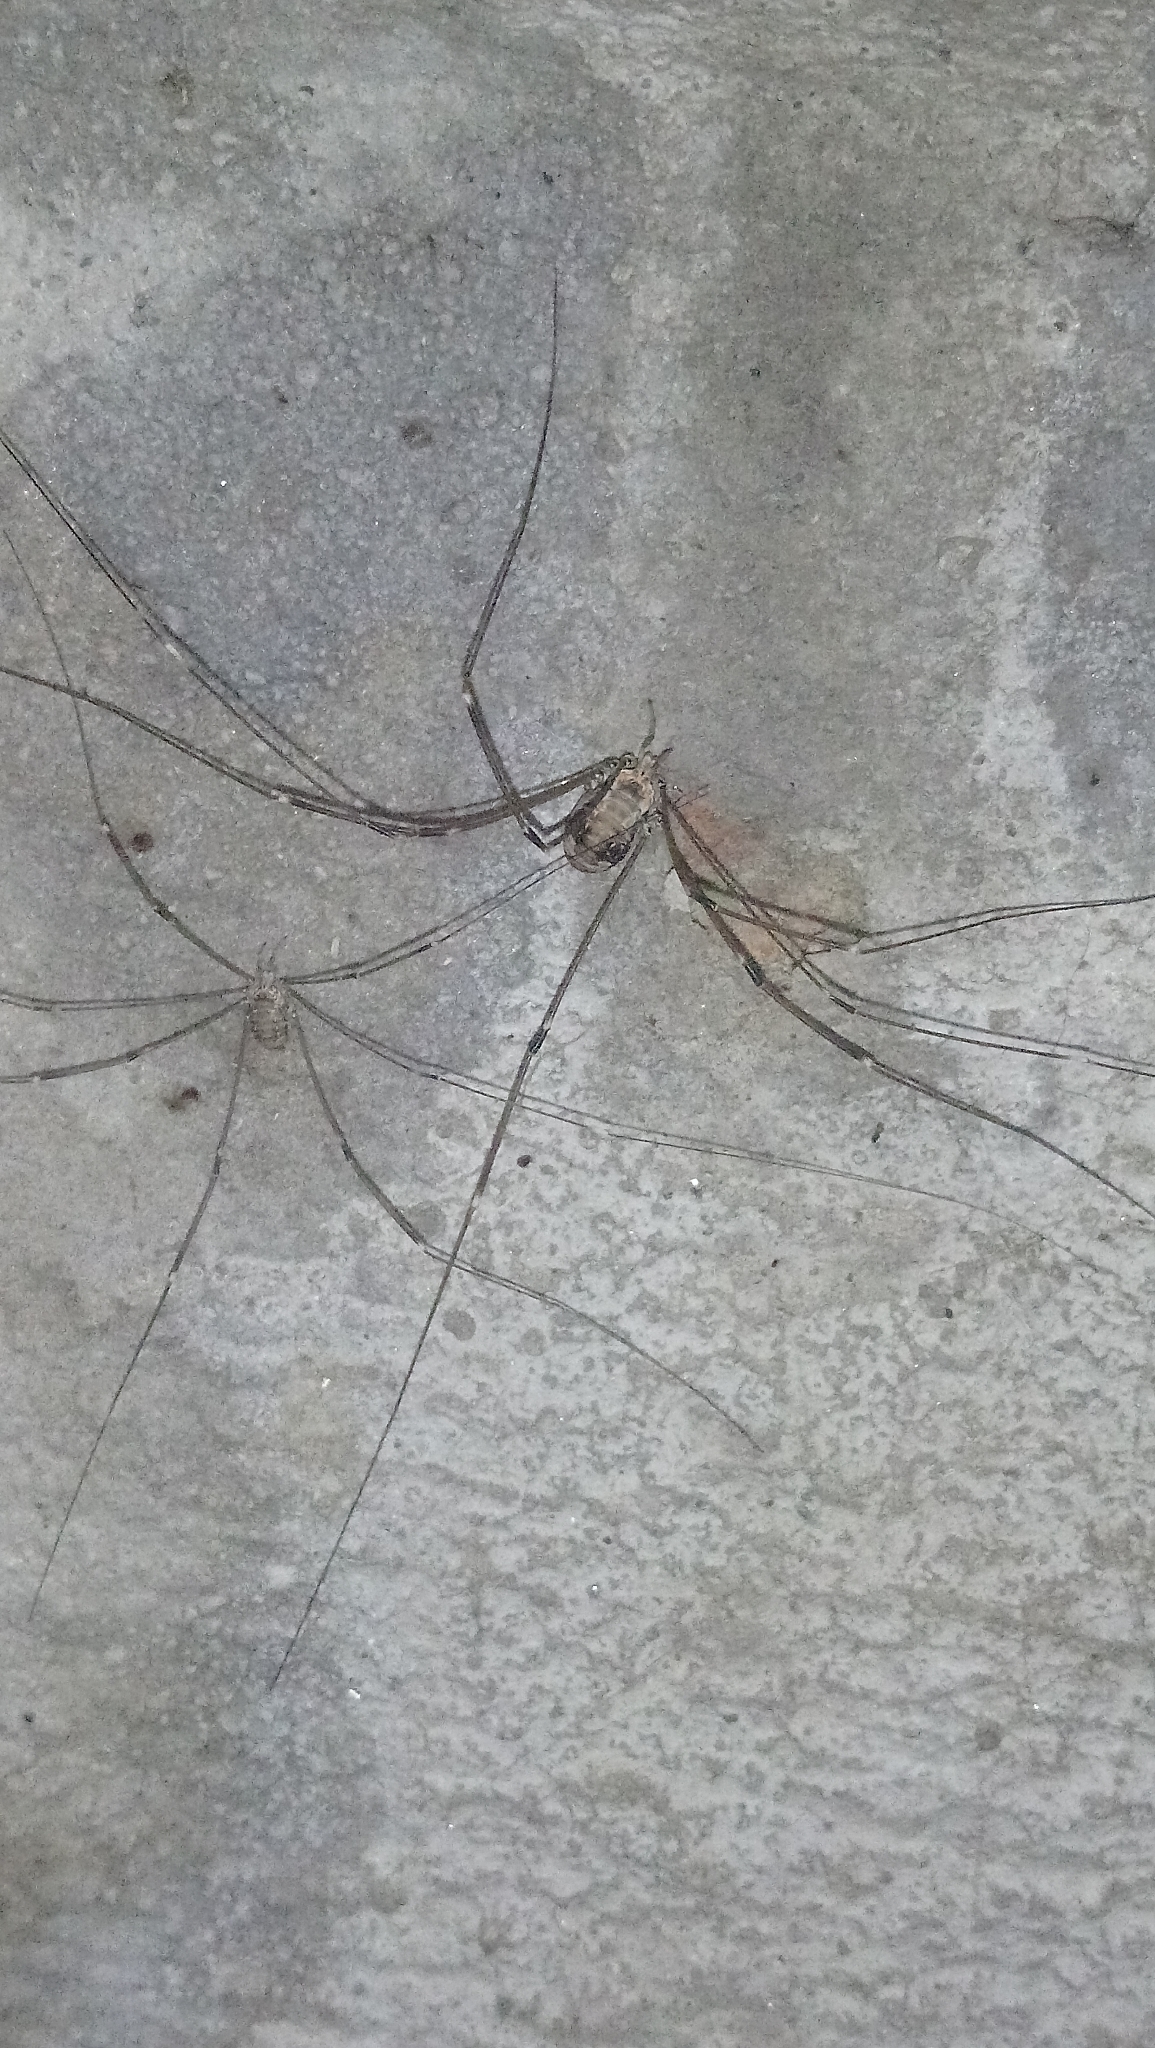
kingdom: Animalia
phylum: Arthropoda
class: Arachnida
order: Opiliones
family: Sclerosomatidae
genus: Leiobunum
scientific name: Leiobunum limbatum
